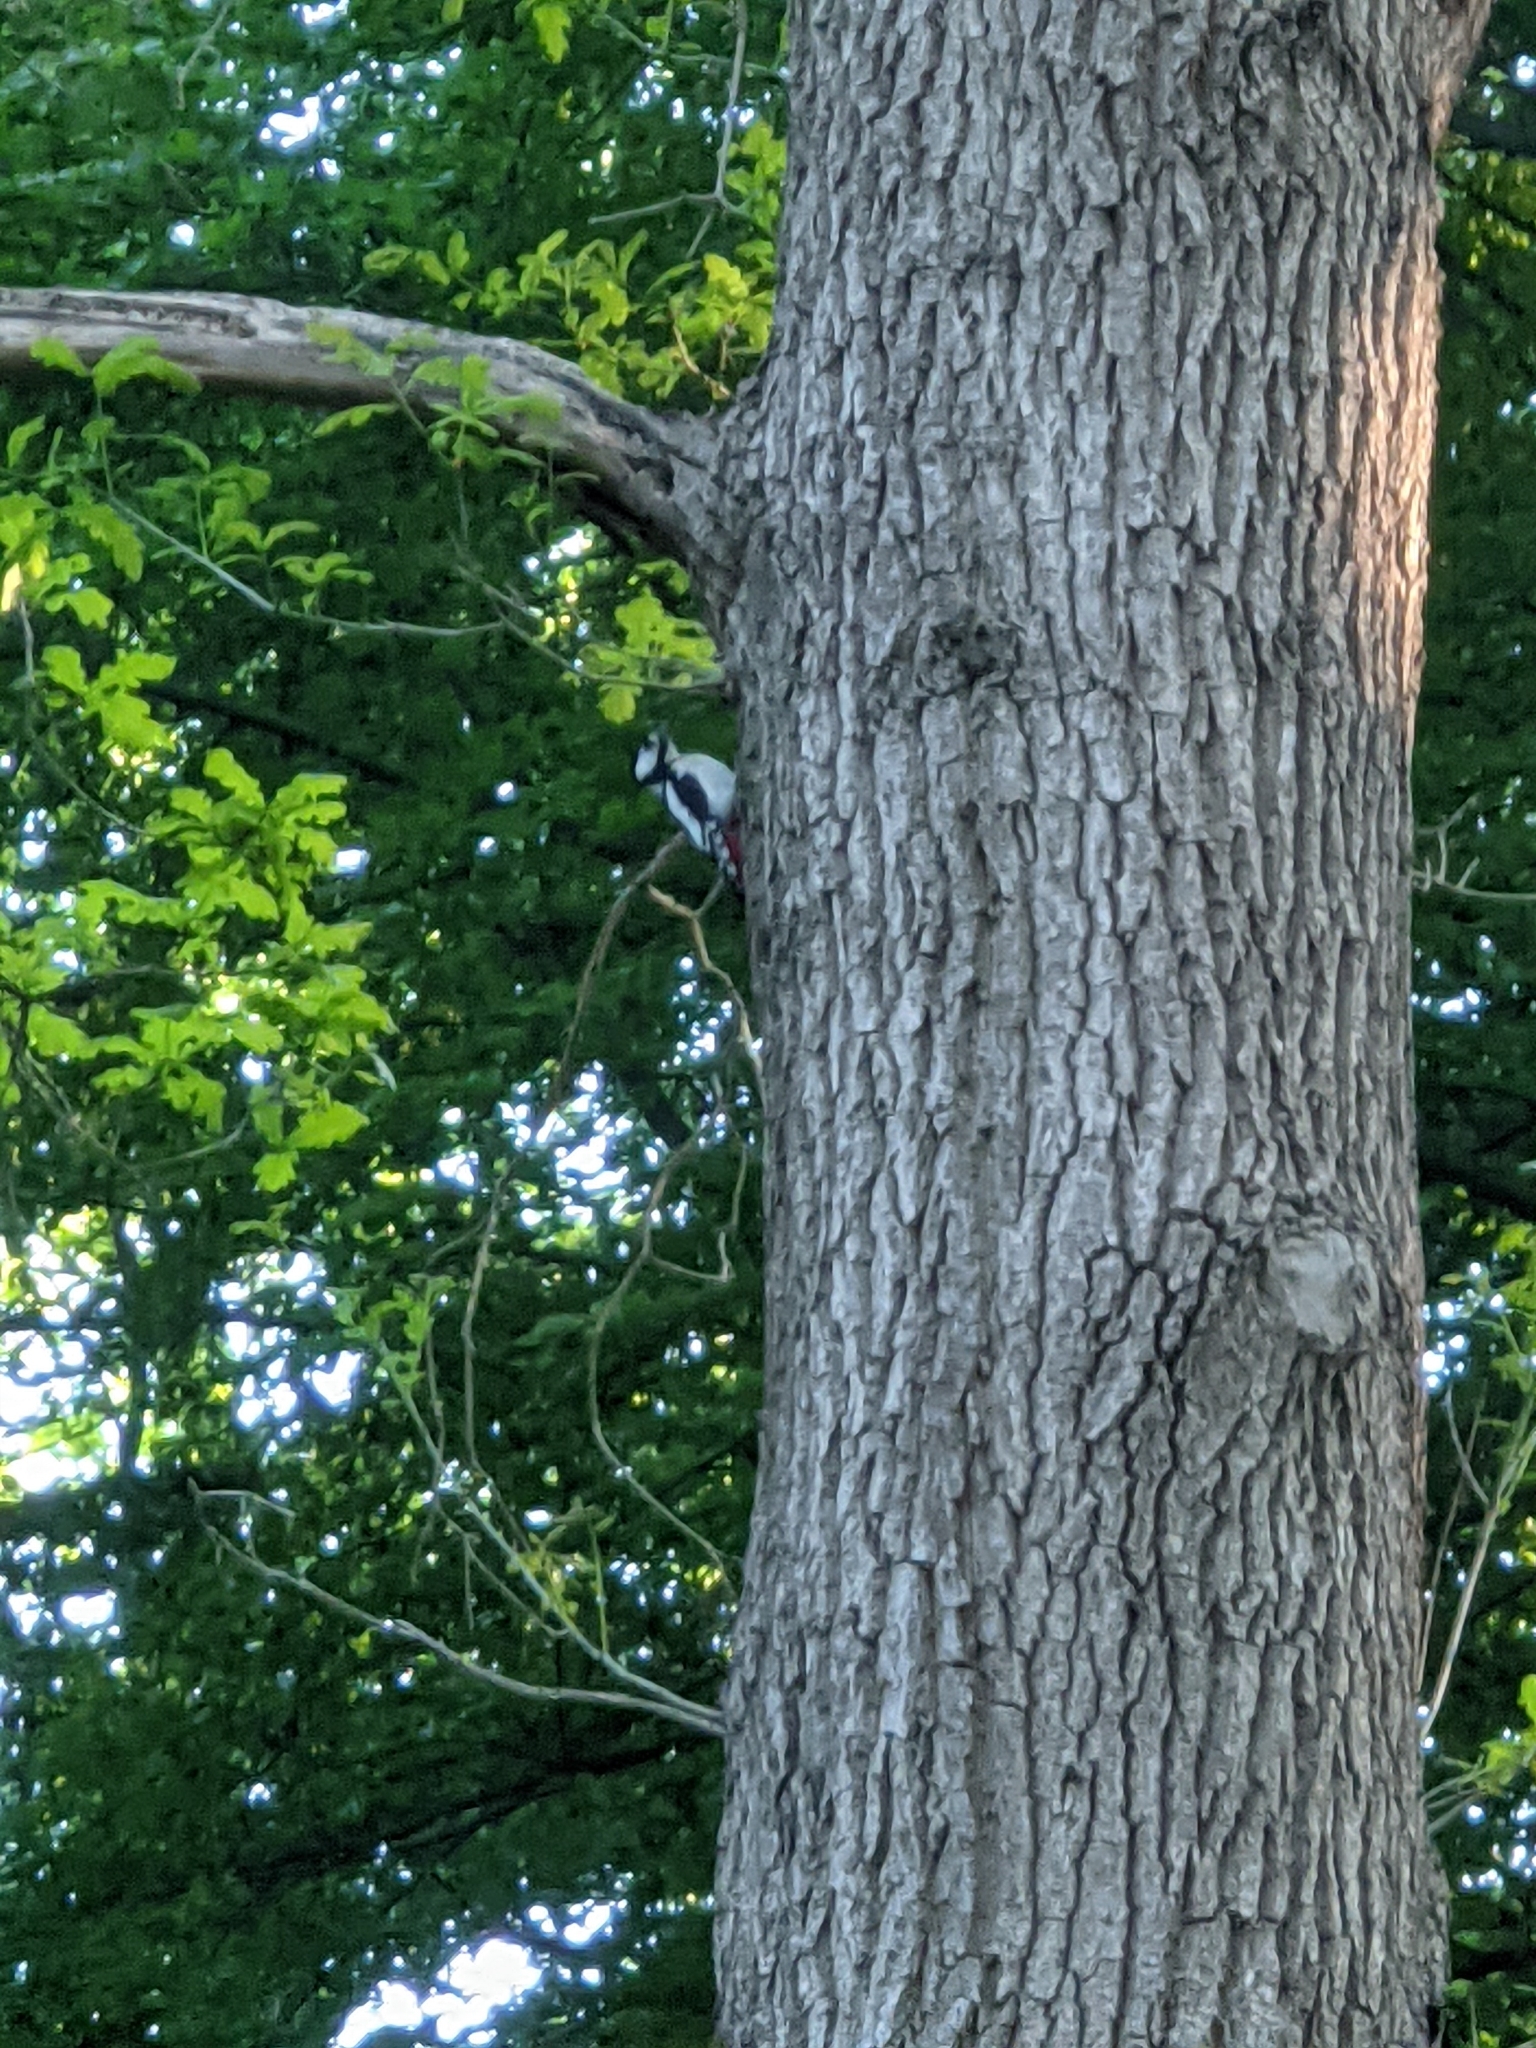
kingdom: Animalia
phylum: Chordata
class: Aves
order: Piciformes
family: Picidae
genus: Dendrocopos
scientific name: Dendrocopos major
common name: Great spotted woodpecker
